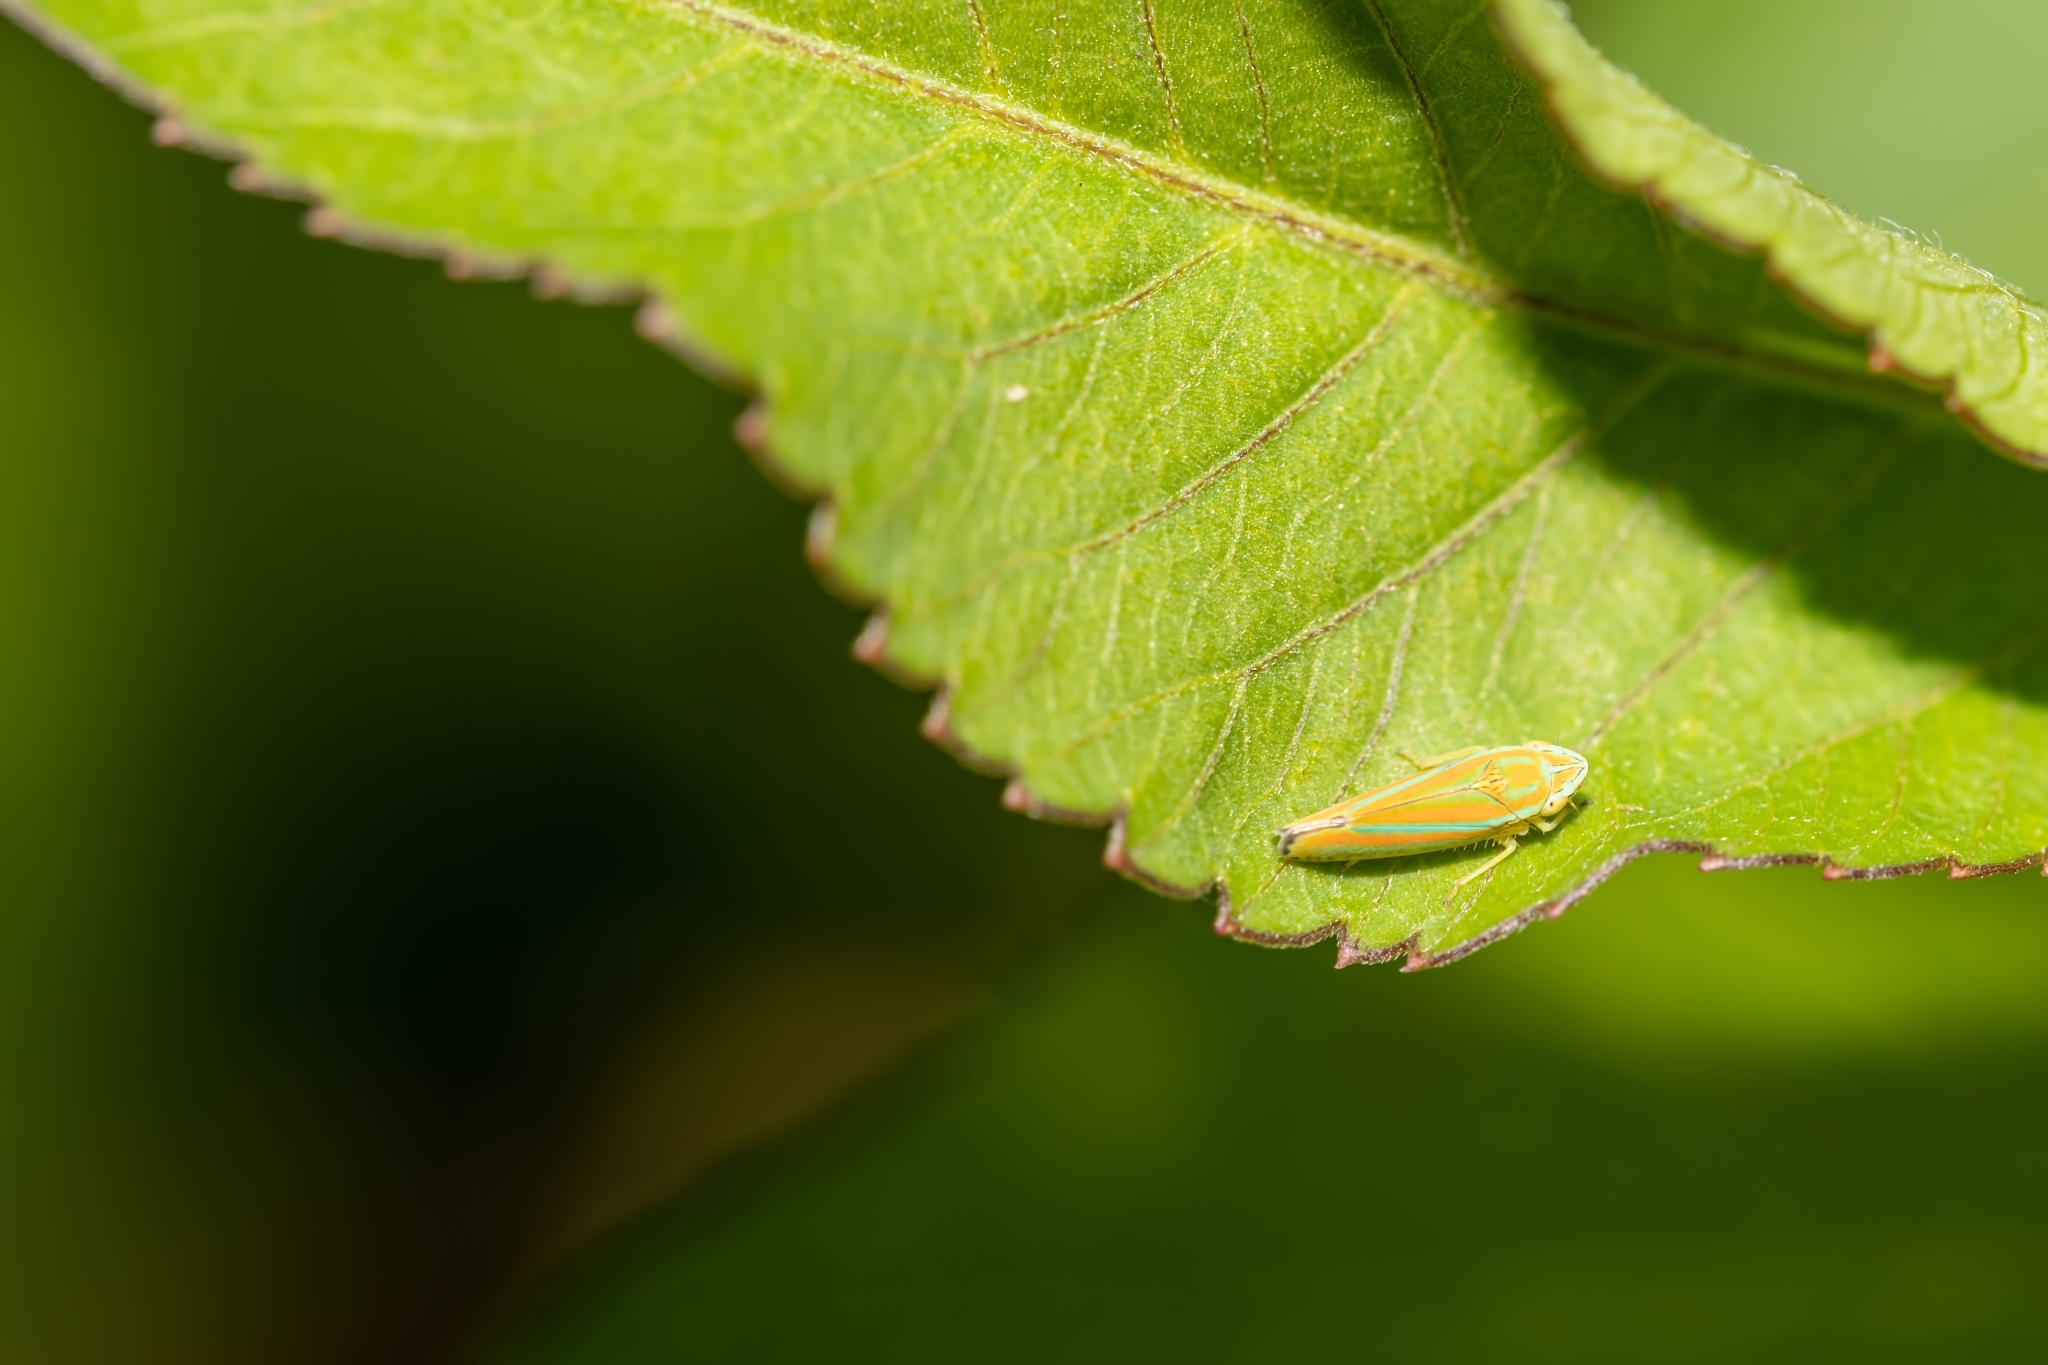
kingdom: Animalia
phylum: Arthropoda
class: Insecta
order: Hemiptera
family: Cicadellidae
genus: Graphocephala
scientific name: Graphocephala versuta
